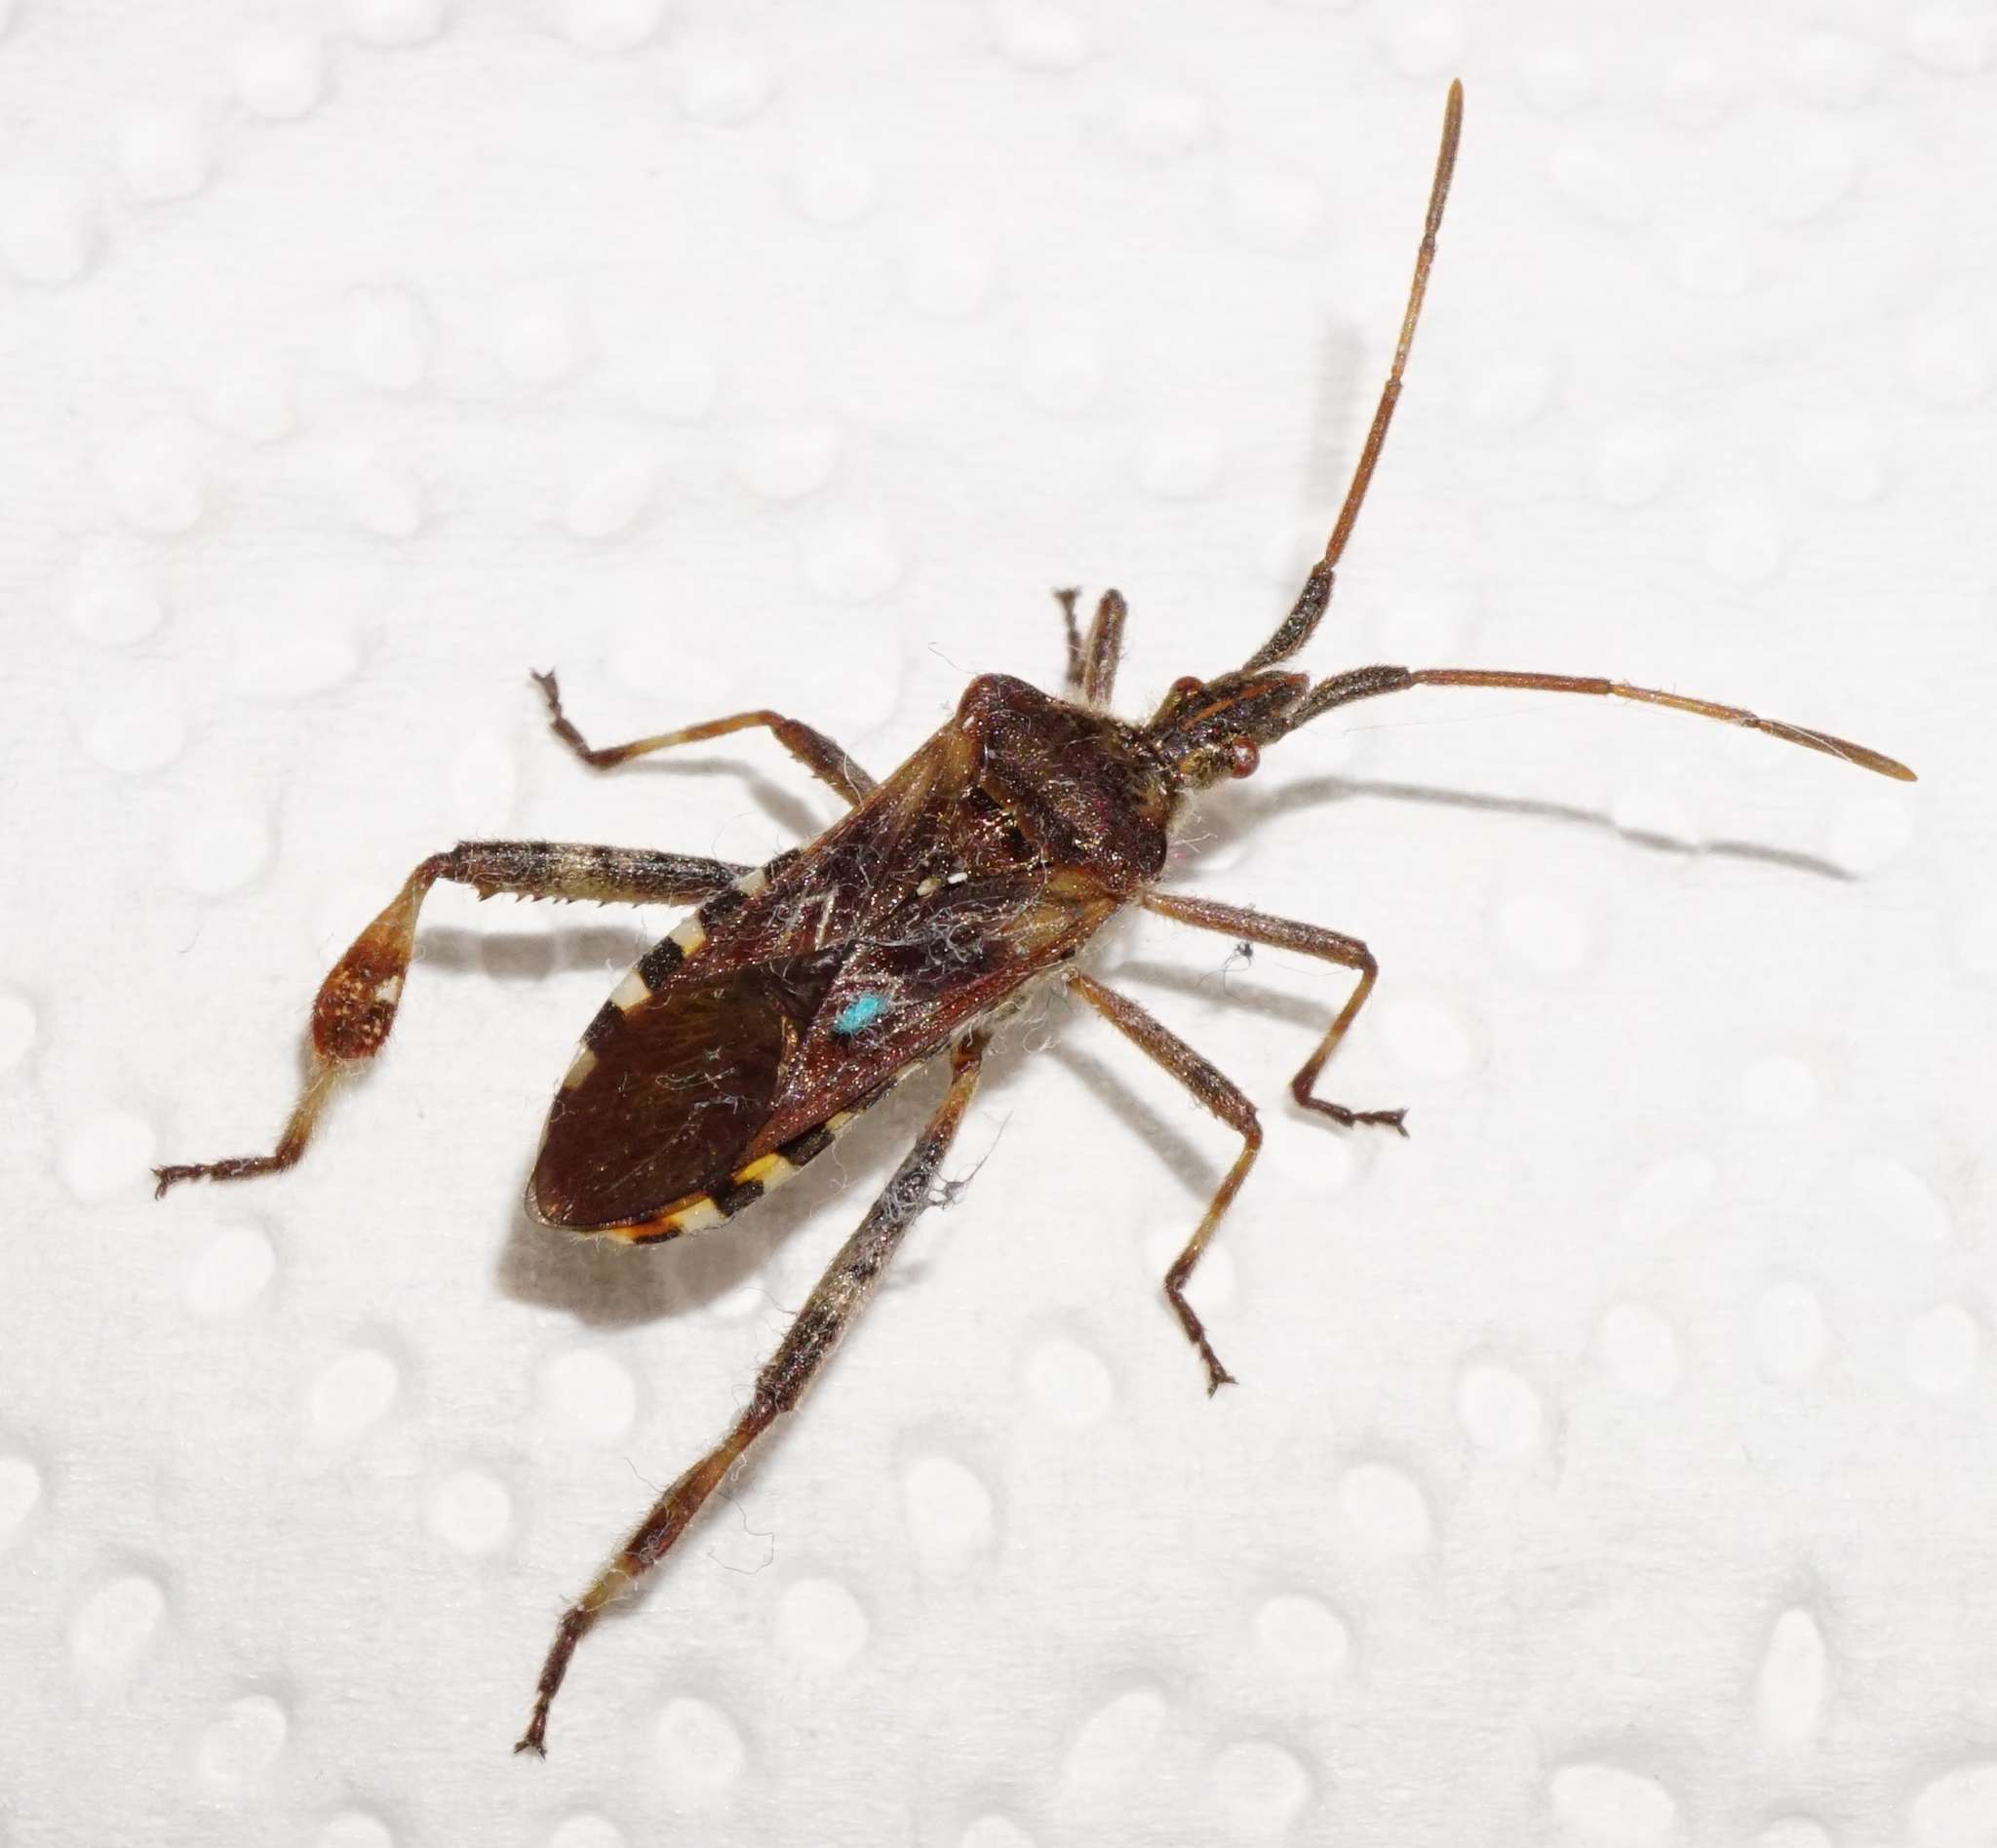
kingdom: Animalia
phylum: Arthropoda
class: Insecta
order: Hemiptera
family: Coreidae
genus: Leptoglossus
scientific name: Leptoglossus occidentalis
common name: Western conifer-seed bug
